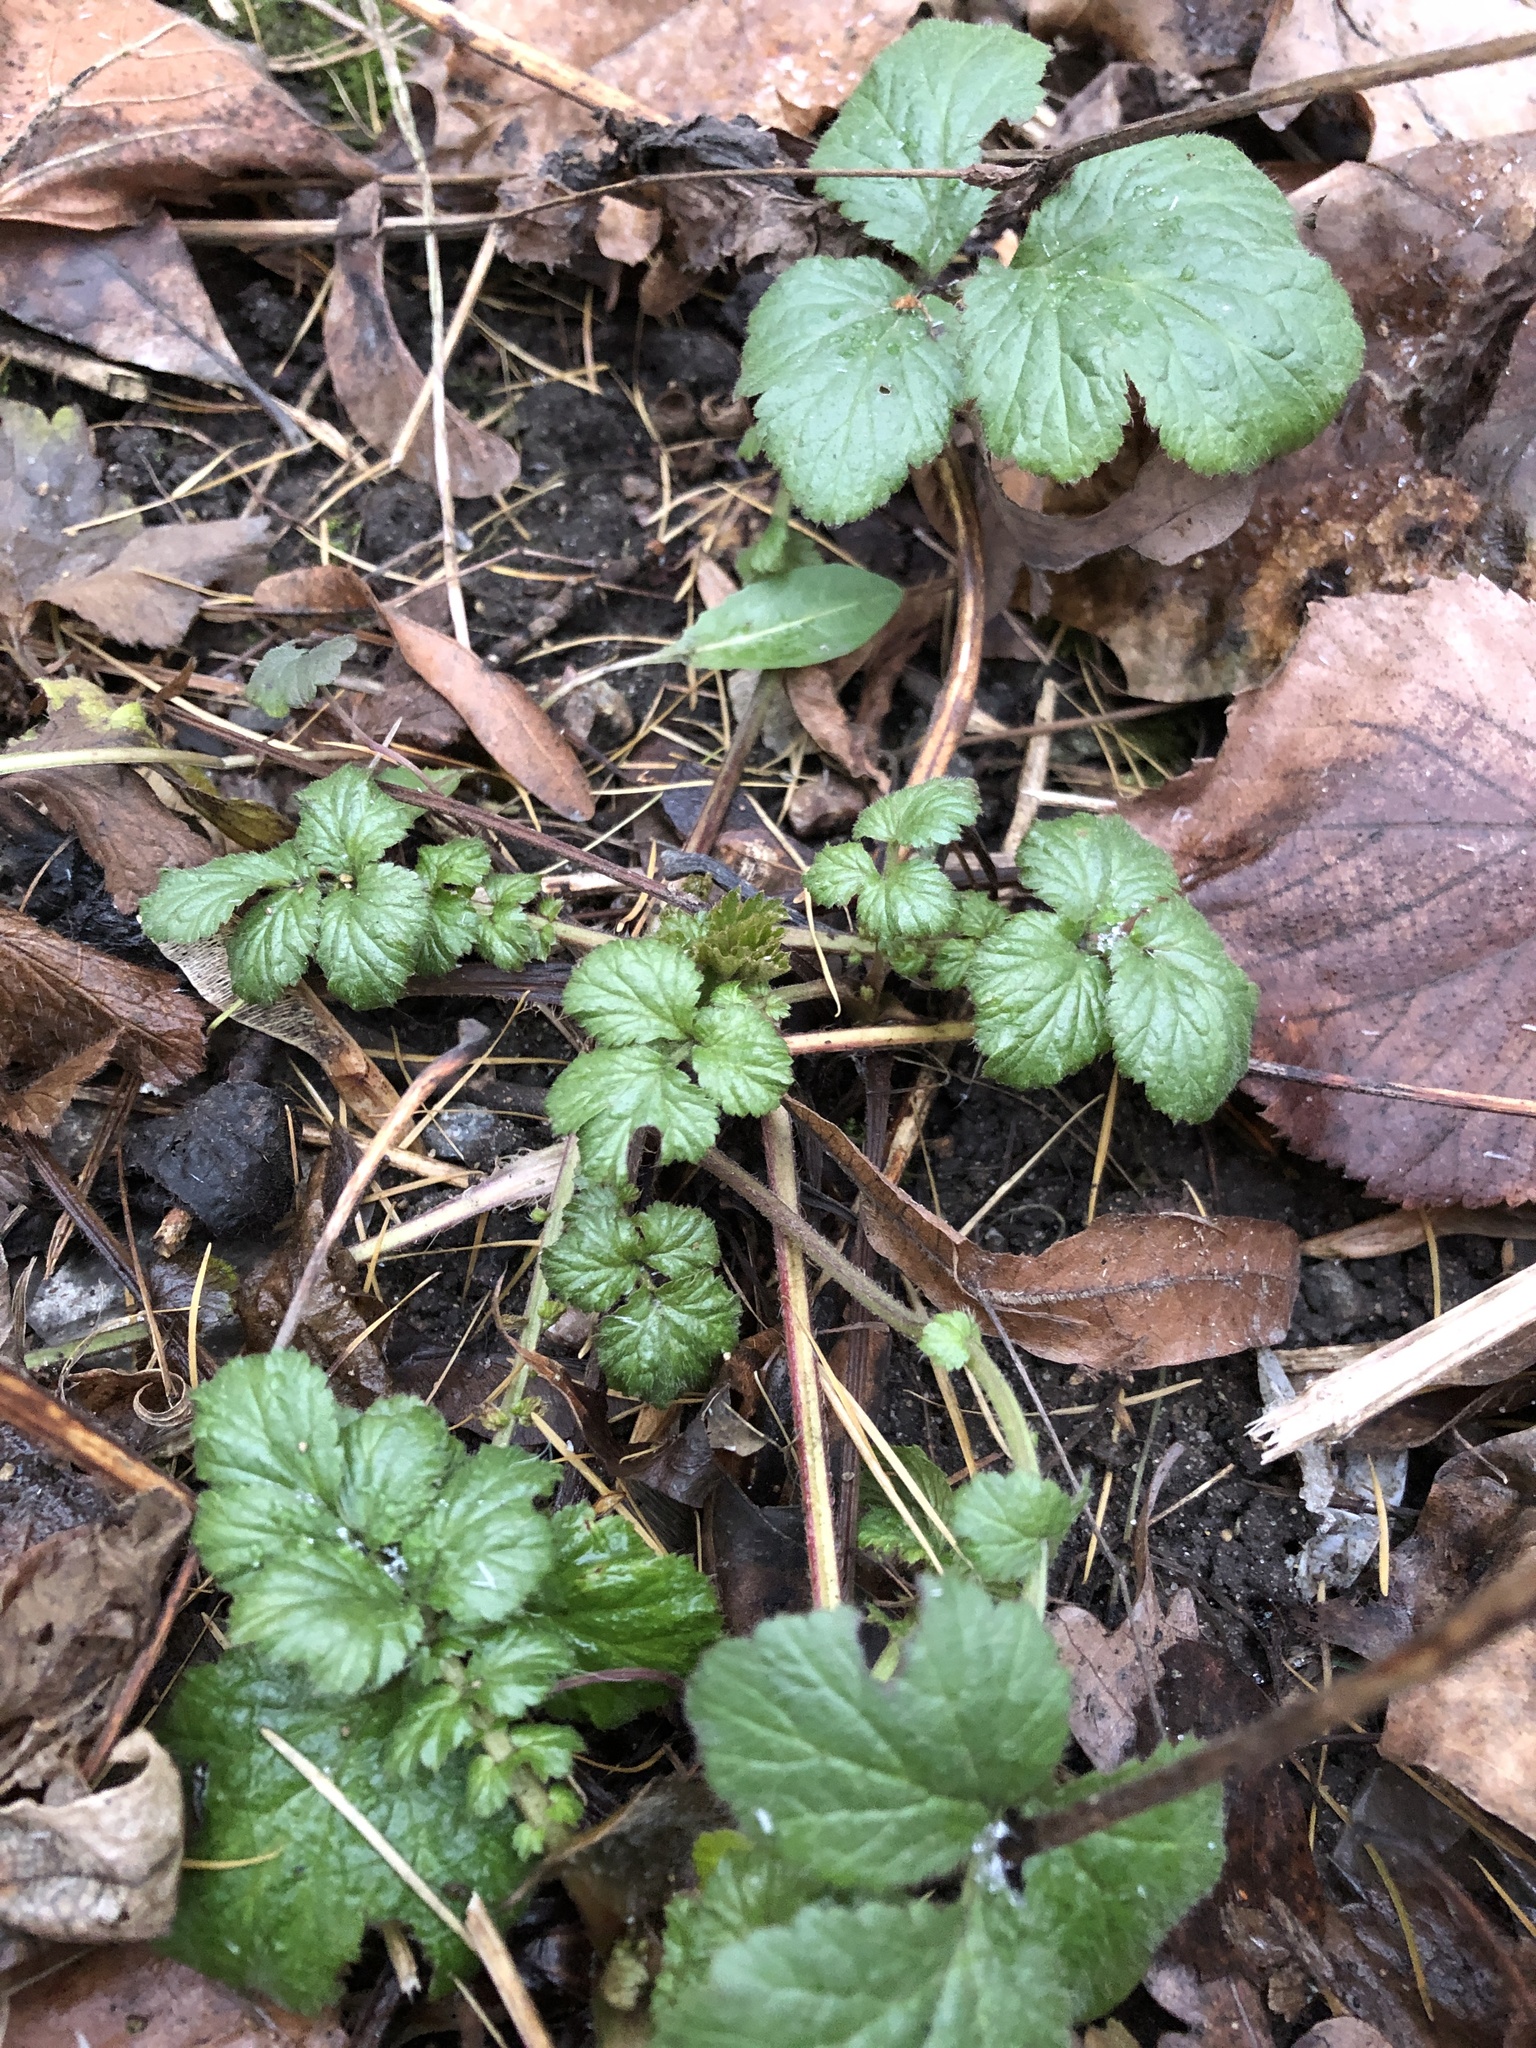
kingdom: Plantae
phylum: Tracheophyta
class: Magnoliopsida
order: Rosales
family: Rosaceae
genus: Geum
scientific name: Geum
